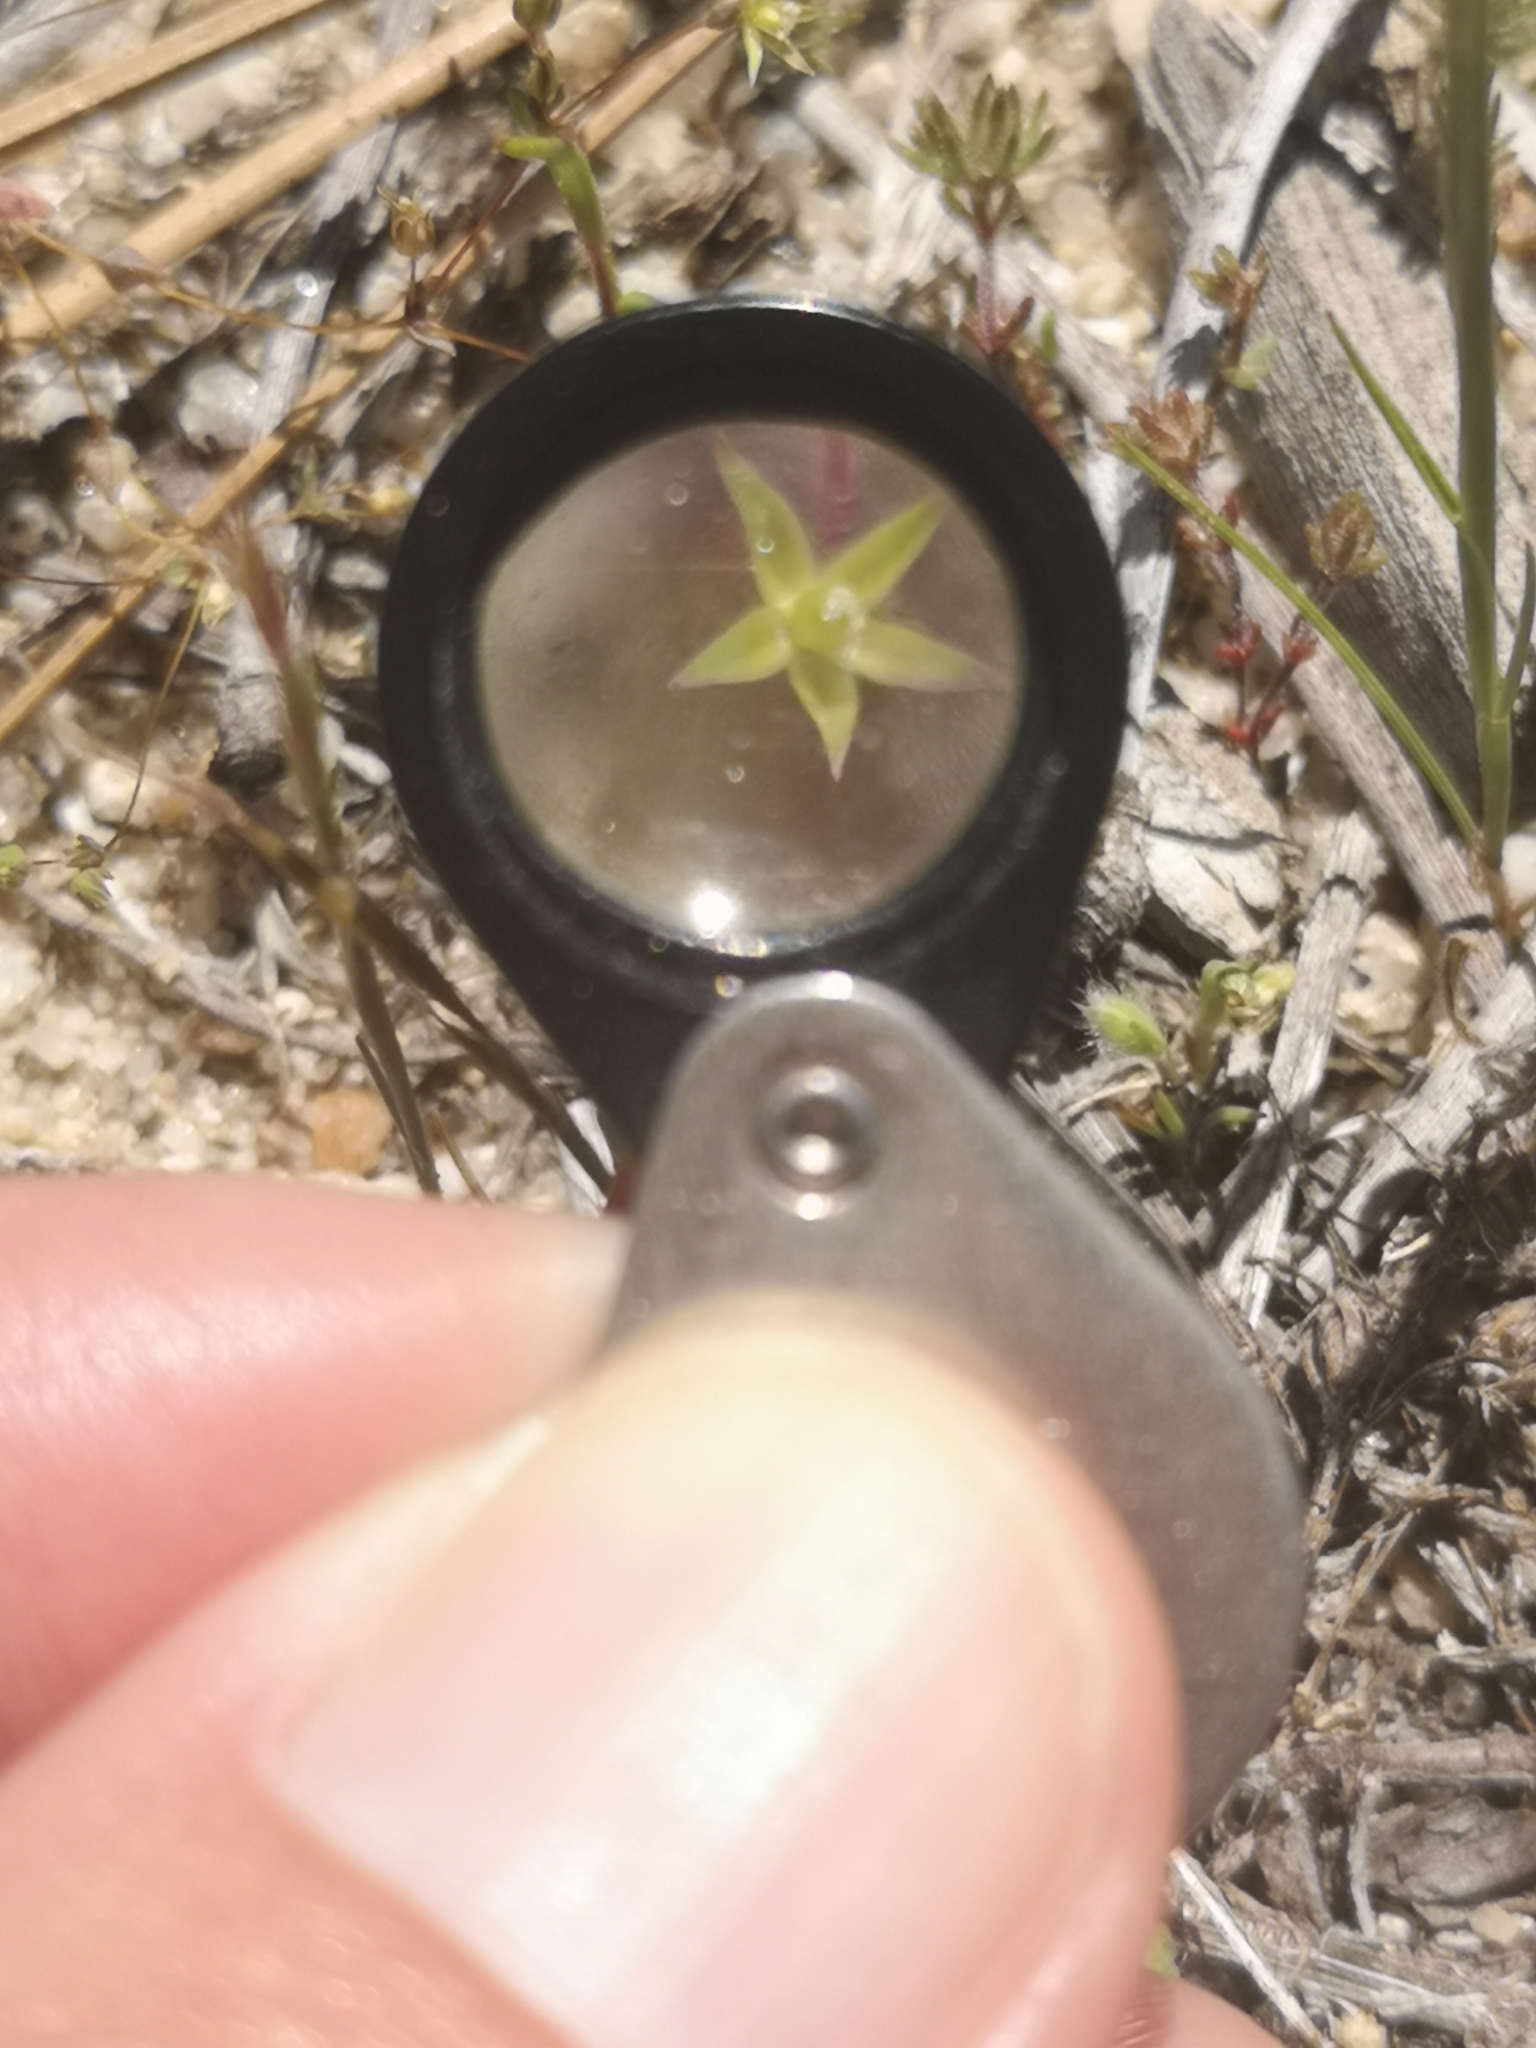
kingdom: Plantae
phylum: Tracheophyta
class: Magnoliopsida
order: Caryophyllales
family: Caryophyllaceae
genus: Stellaria
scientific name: Stellaria nitens
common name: Shining starwort
